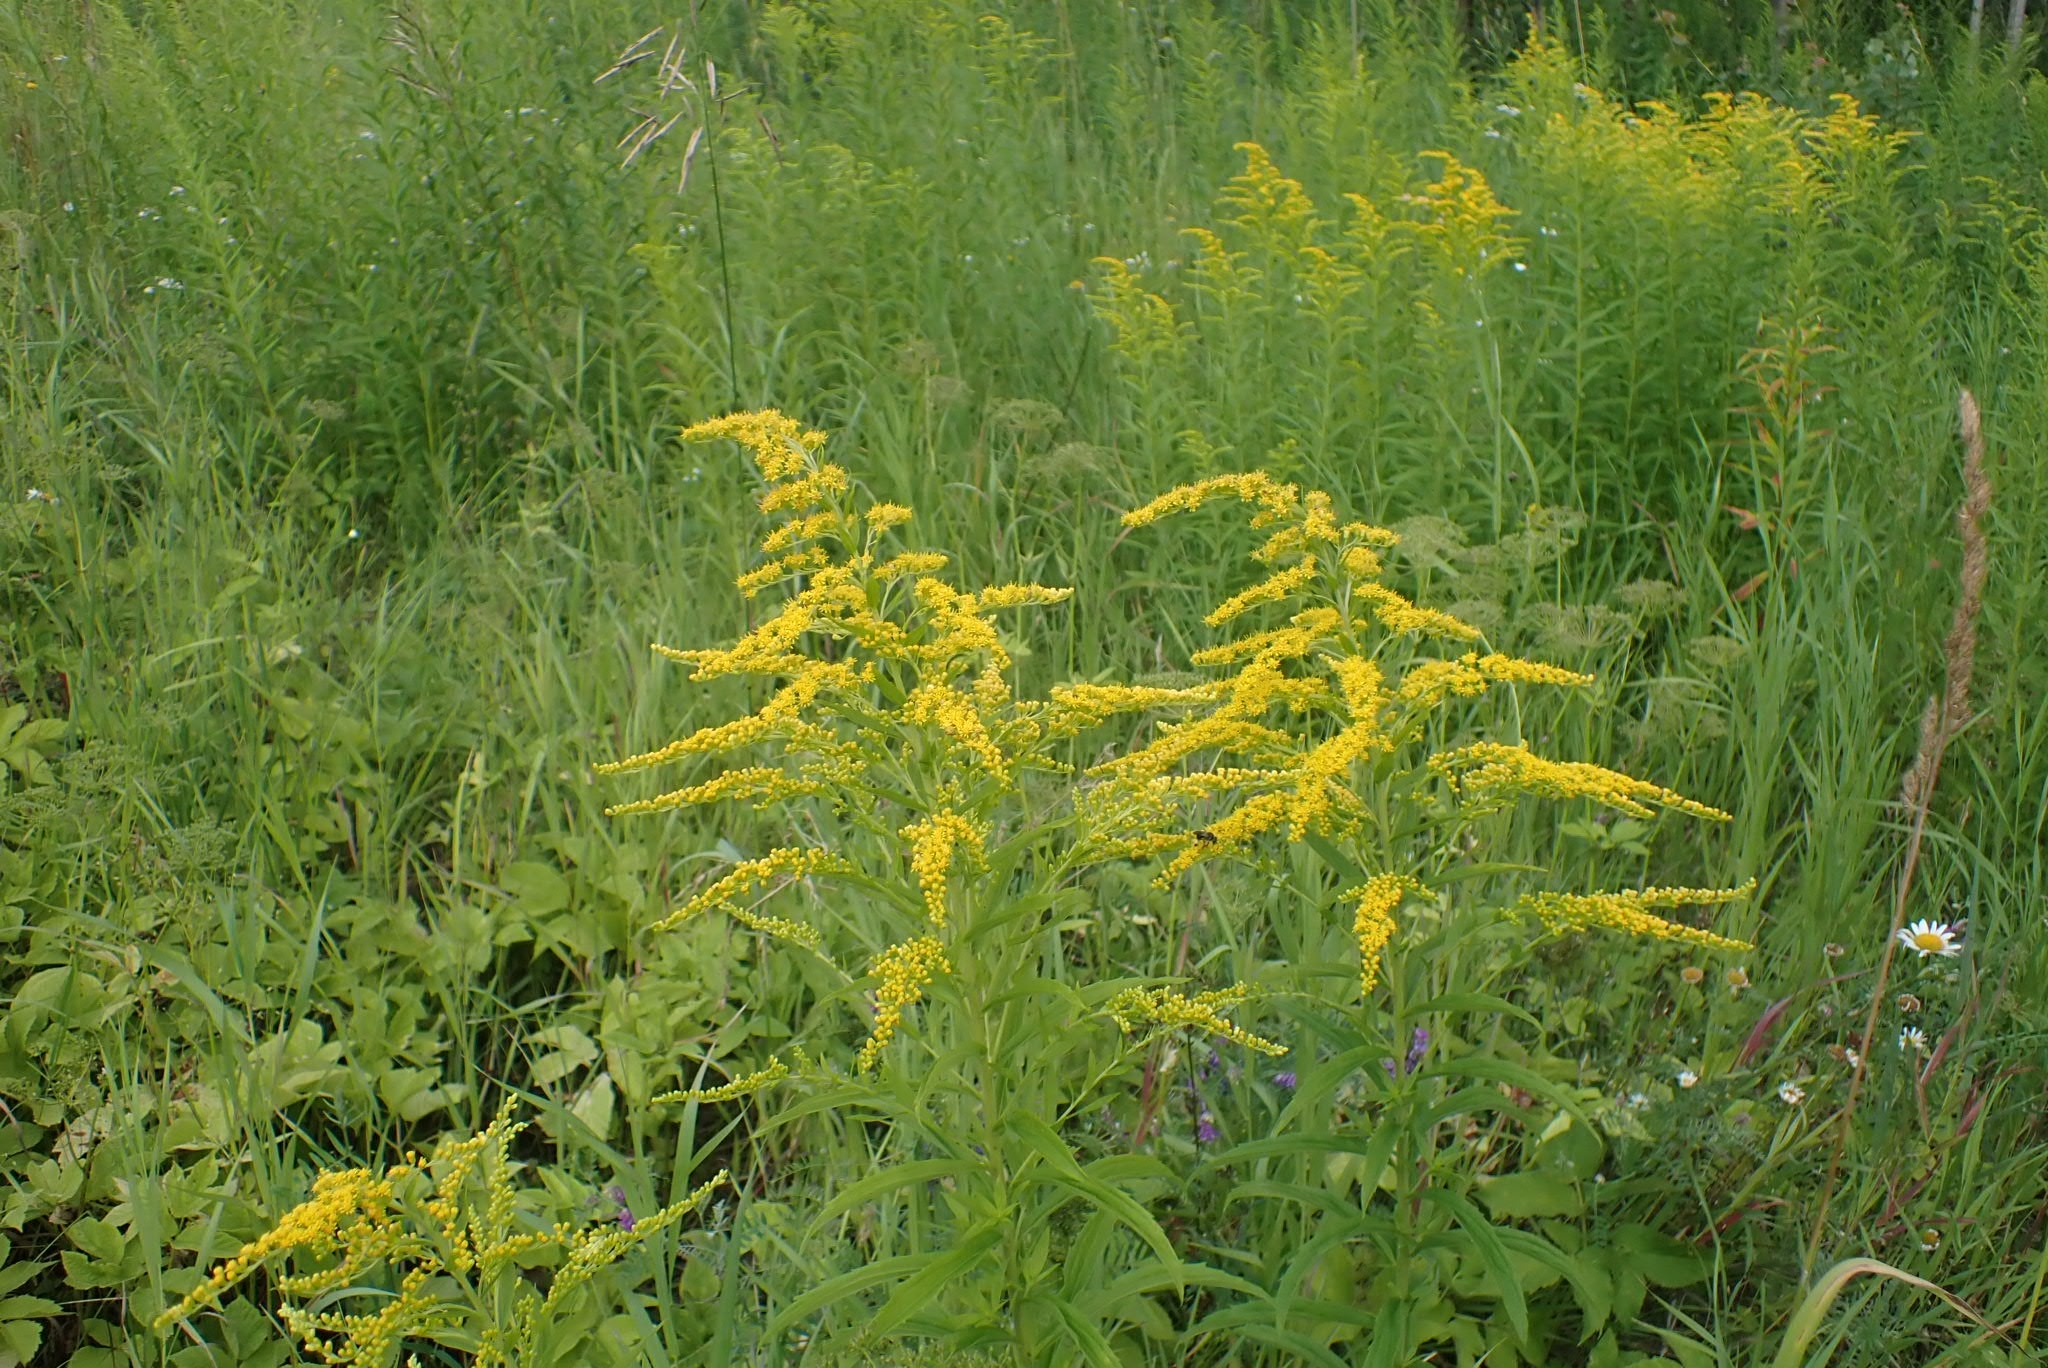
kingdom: Plantae
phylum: Tracheophyta
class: Magnoliopsida
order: Asterales
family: Asteraceae
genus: Solidago
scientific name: Solidago canadensis
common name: Canada goldenrod
